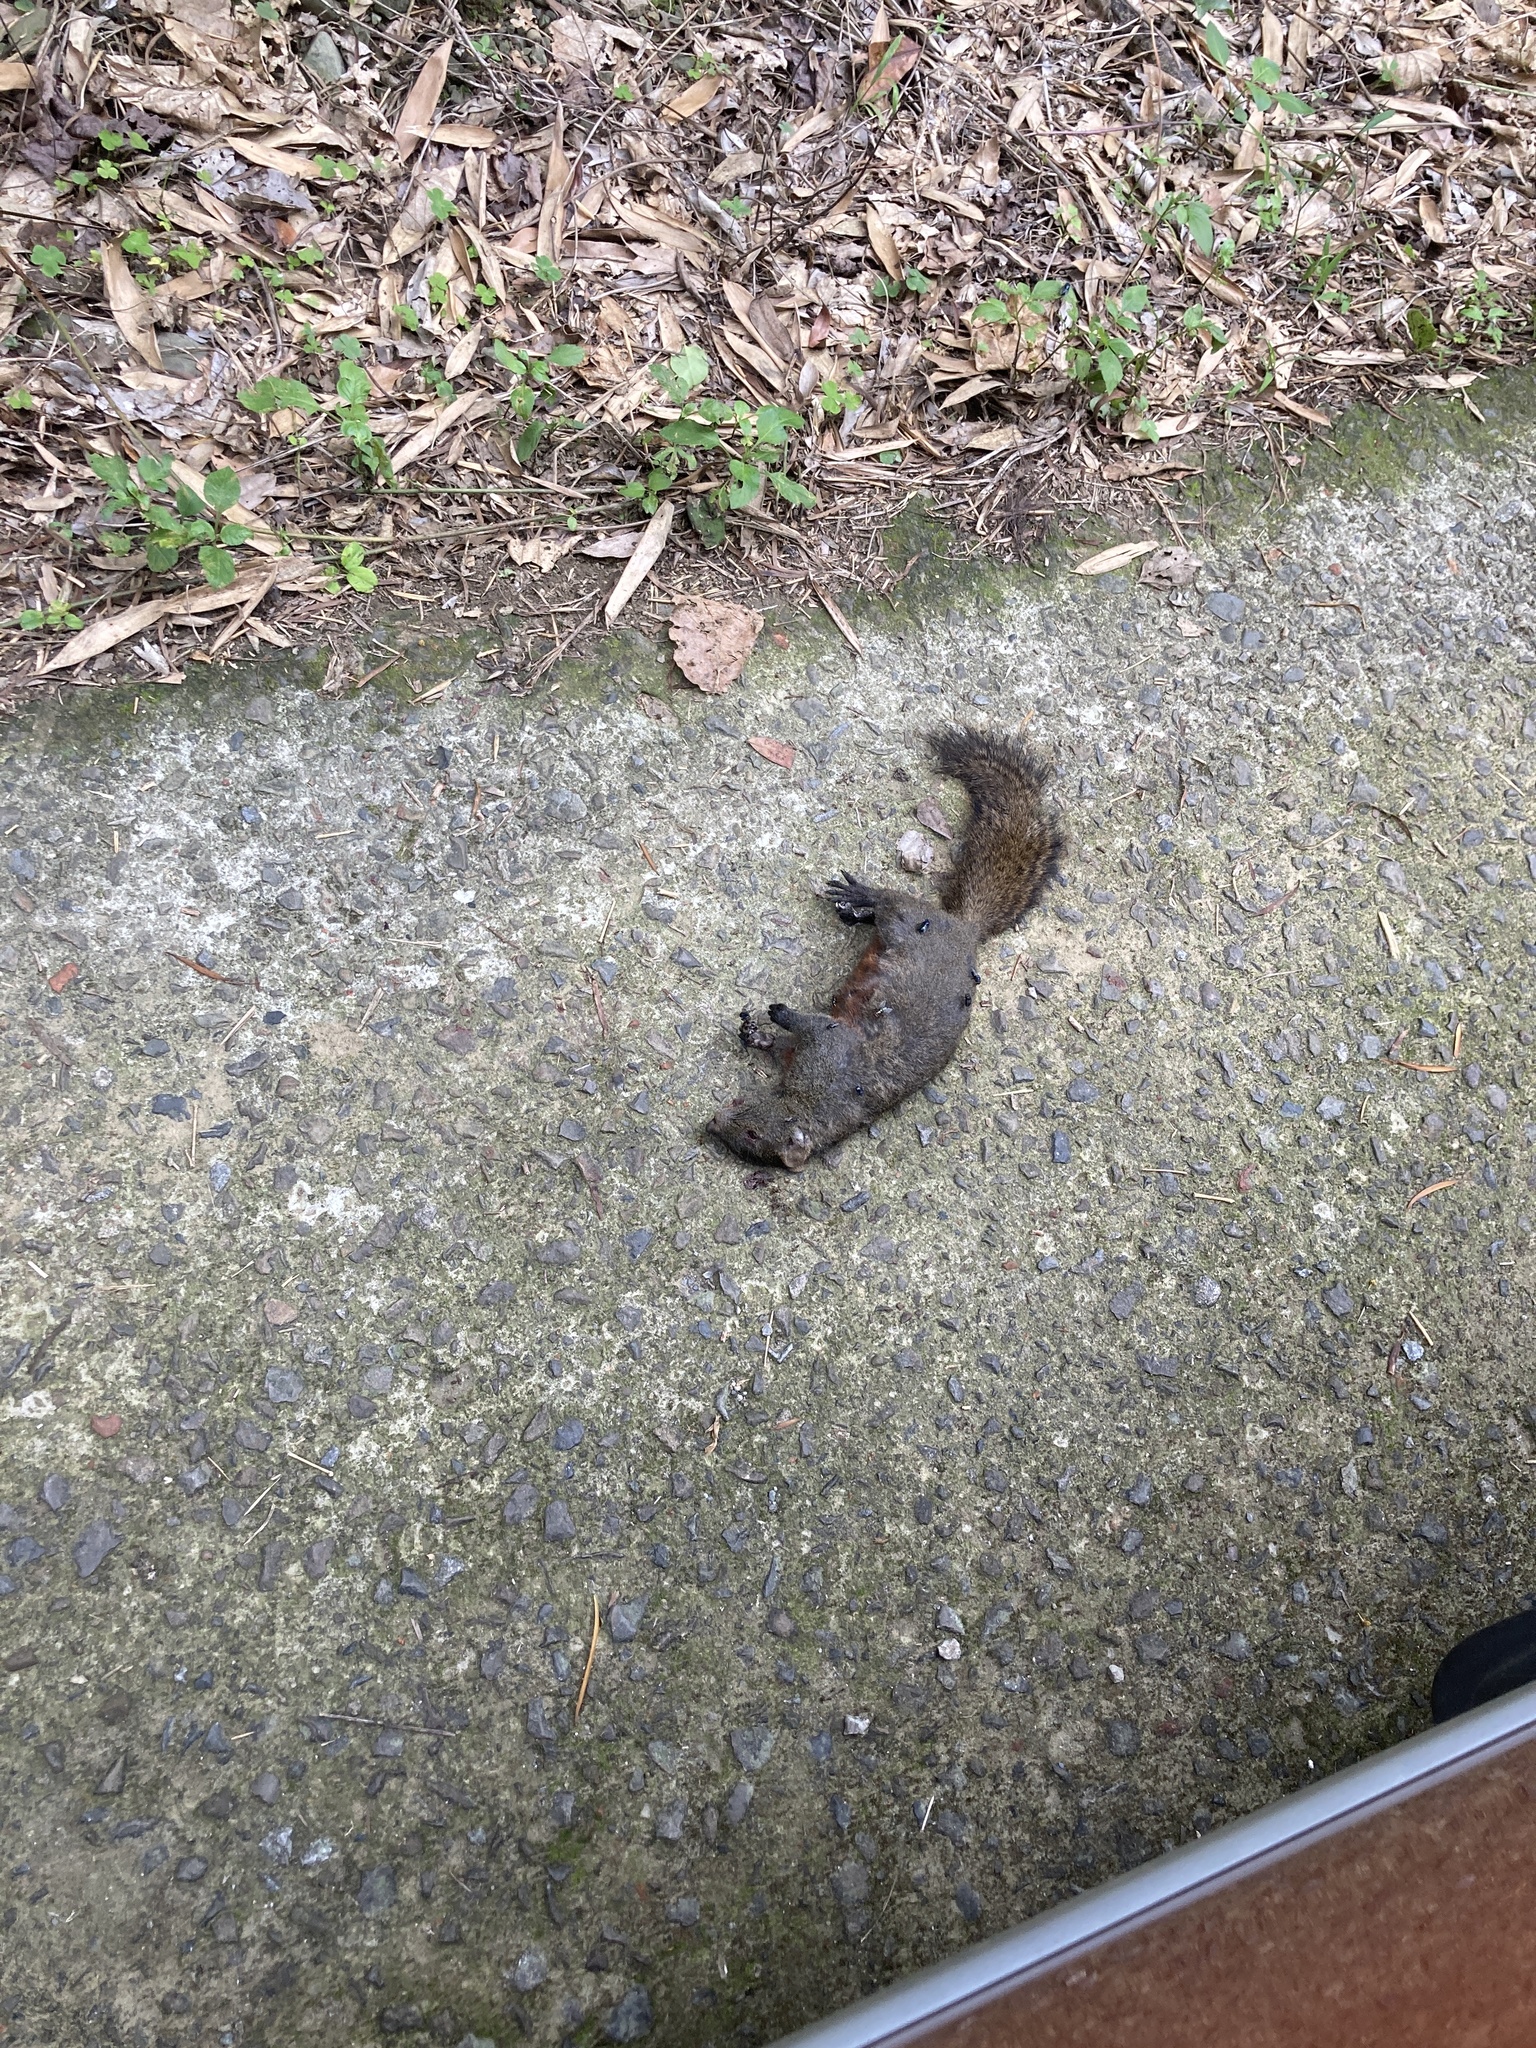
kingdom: Animalia
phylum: Chordata
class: Mammalia
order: Rodentia
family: Sciuridae
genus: Callosciurus
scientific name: Callosciurus erythraeus
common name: Pallas's squirrel
